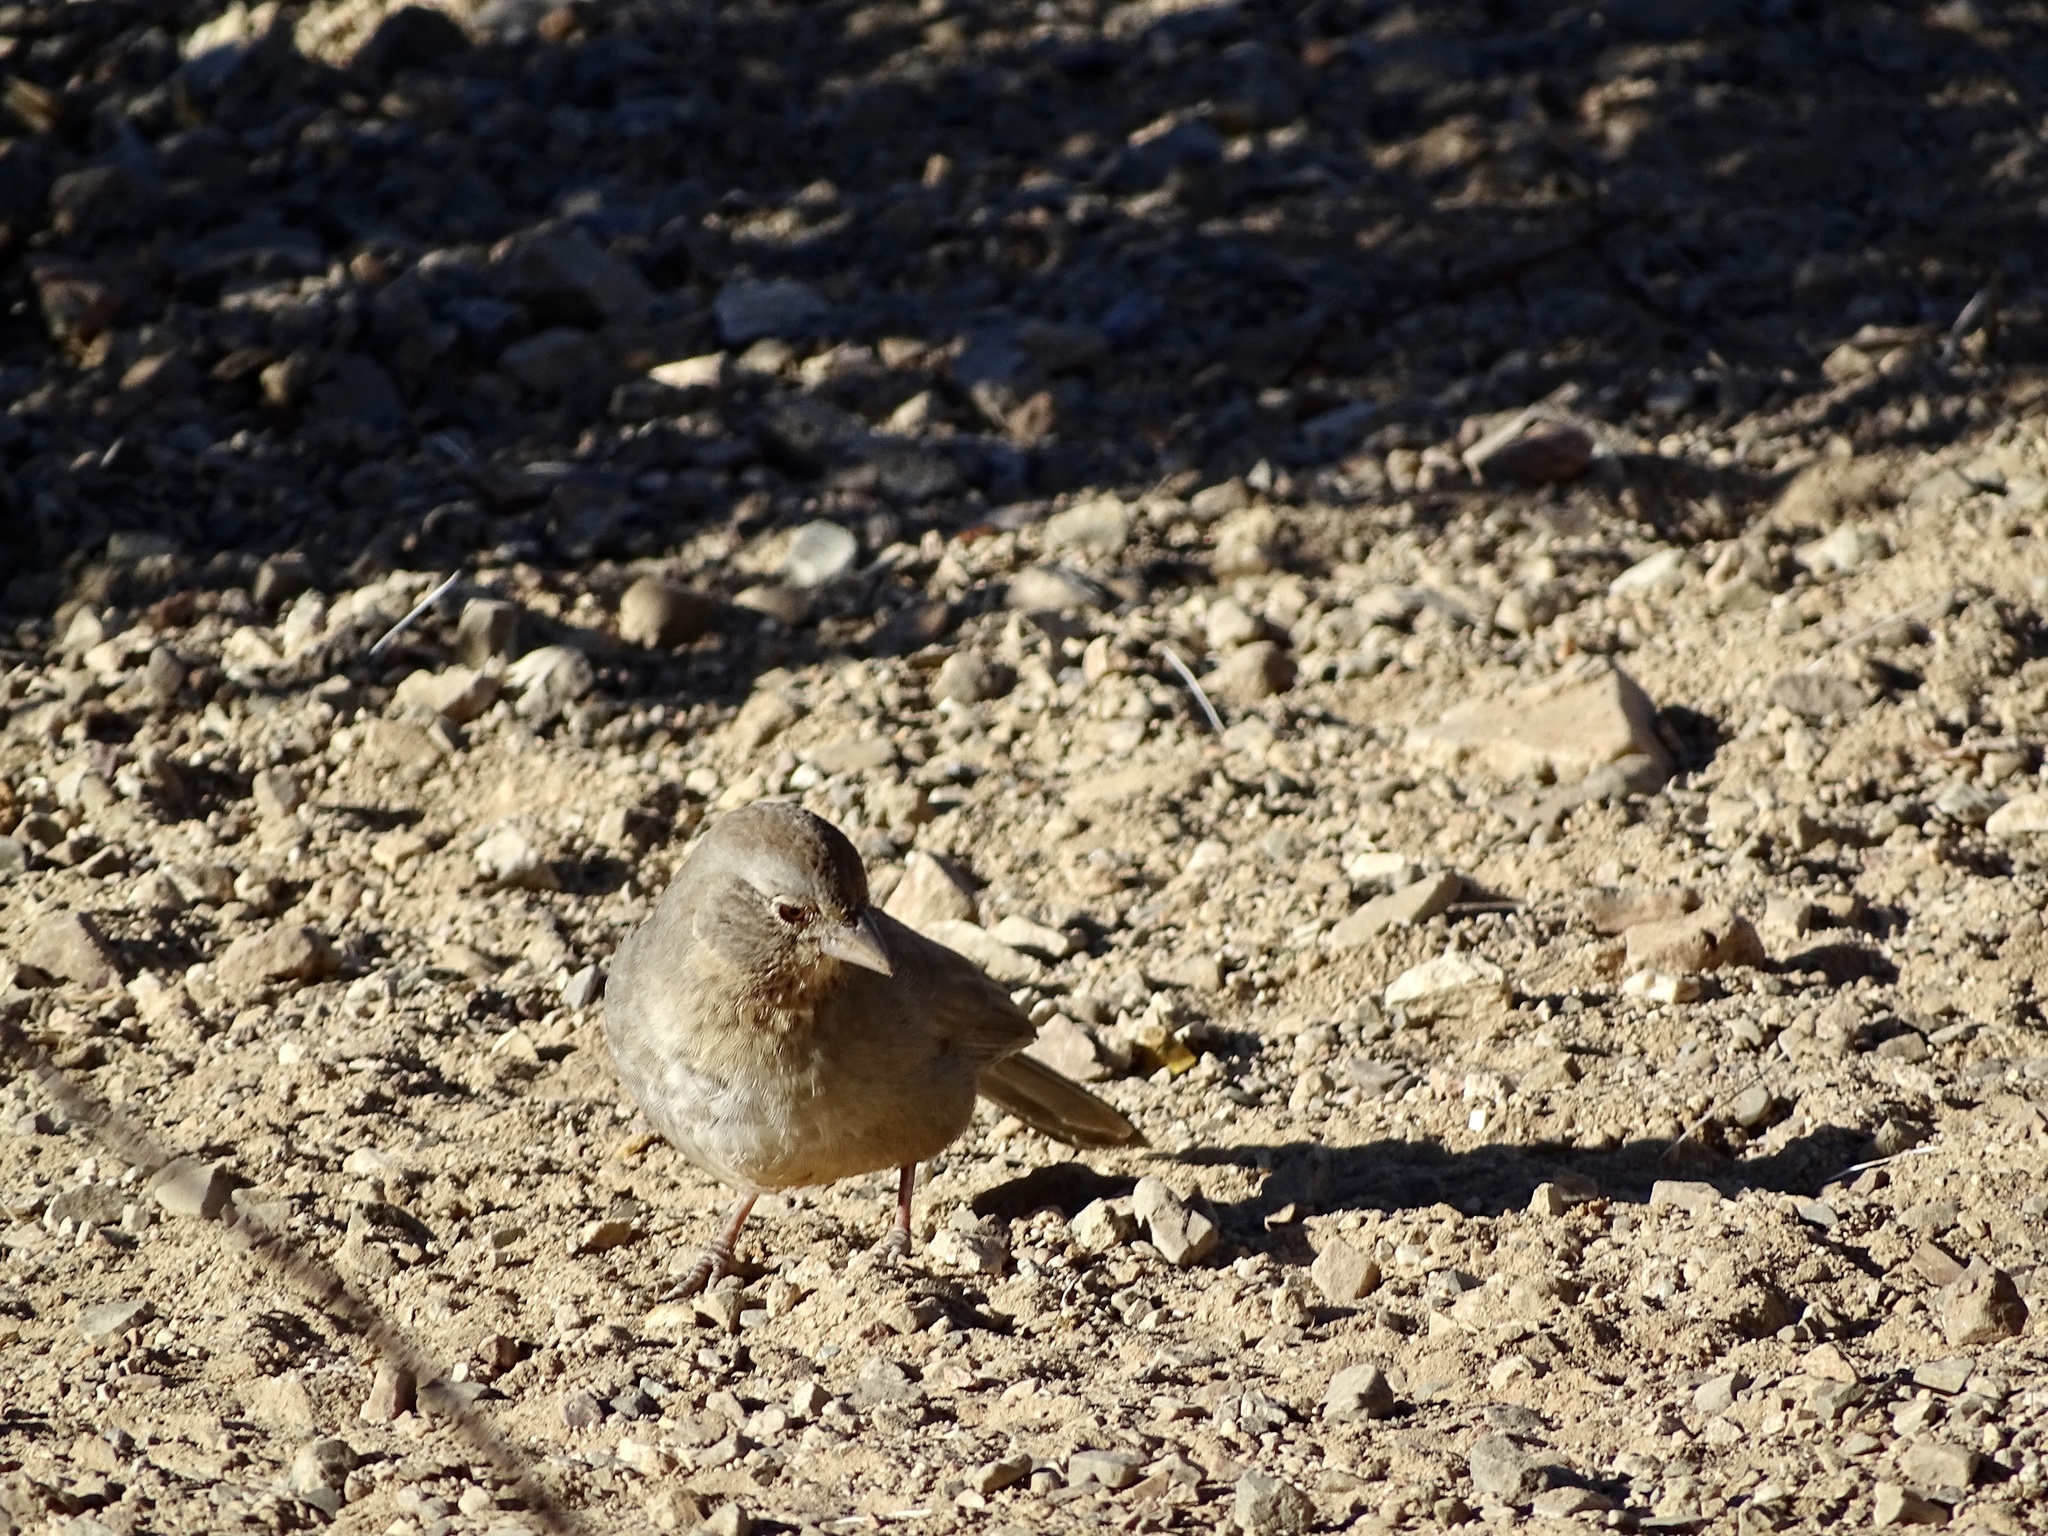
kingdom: Animalia
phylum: Chordata
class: Aves
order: Passeriformes
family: Passerellidae
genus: Melozone
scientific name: Melozone fusca
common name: Canyon towhee
